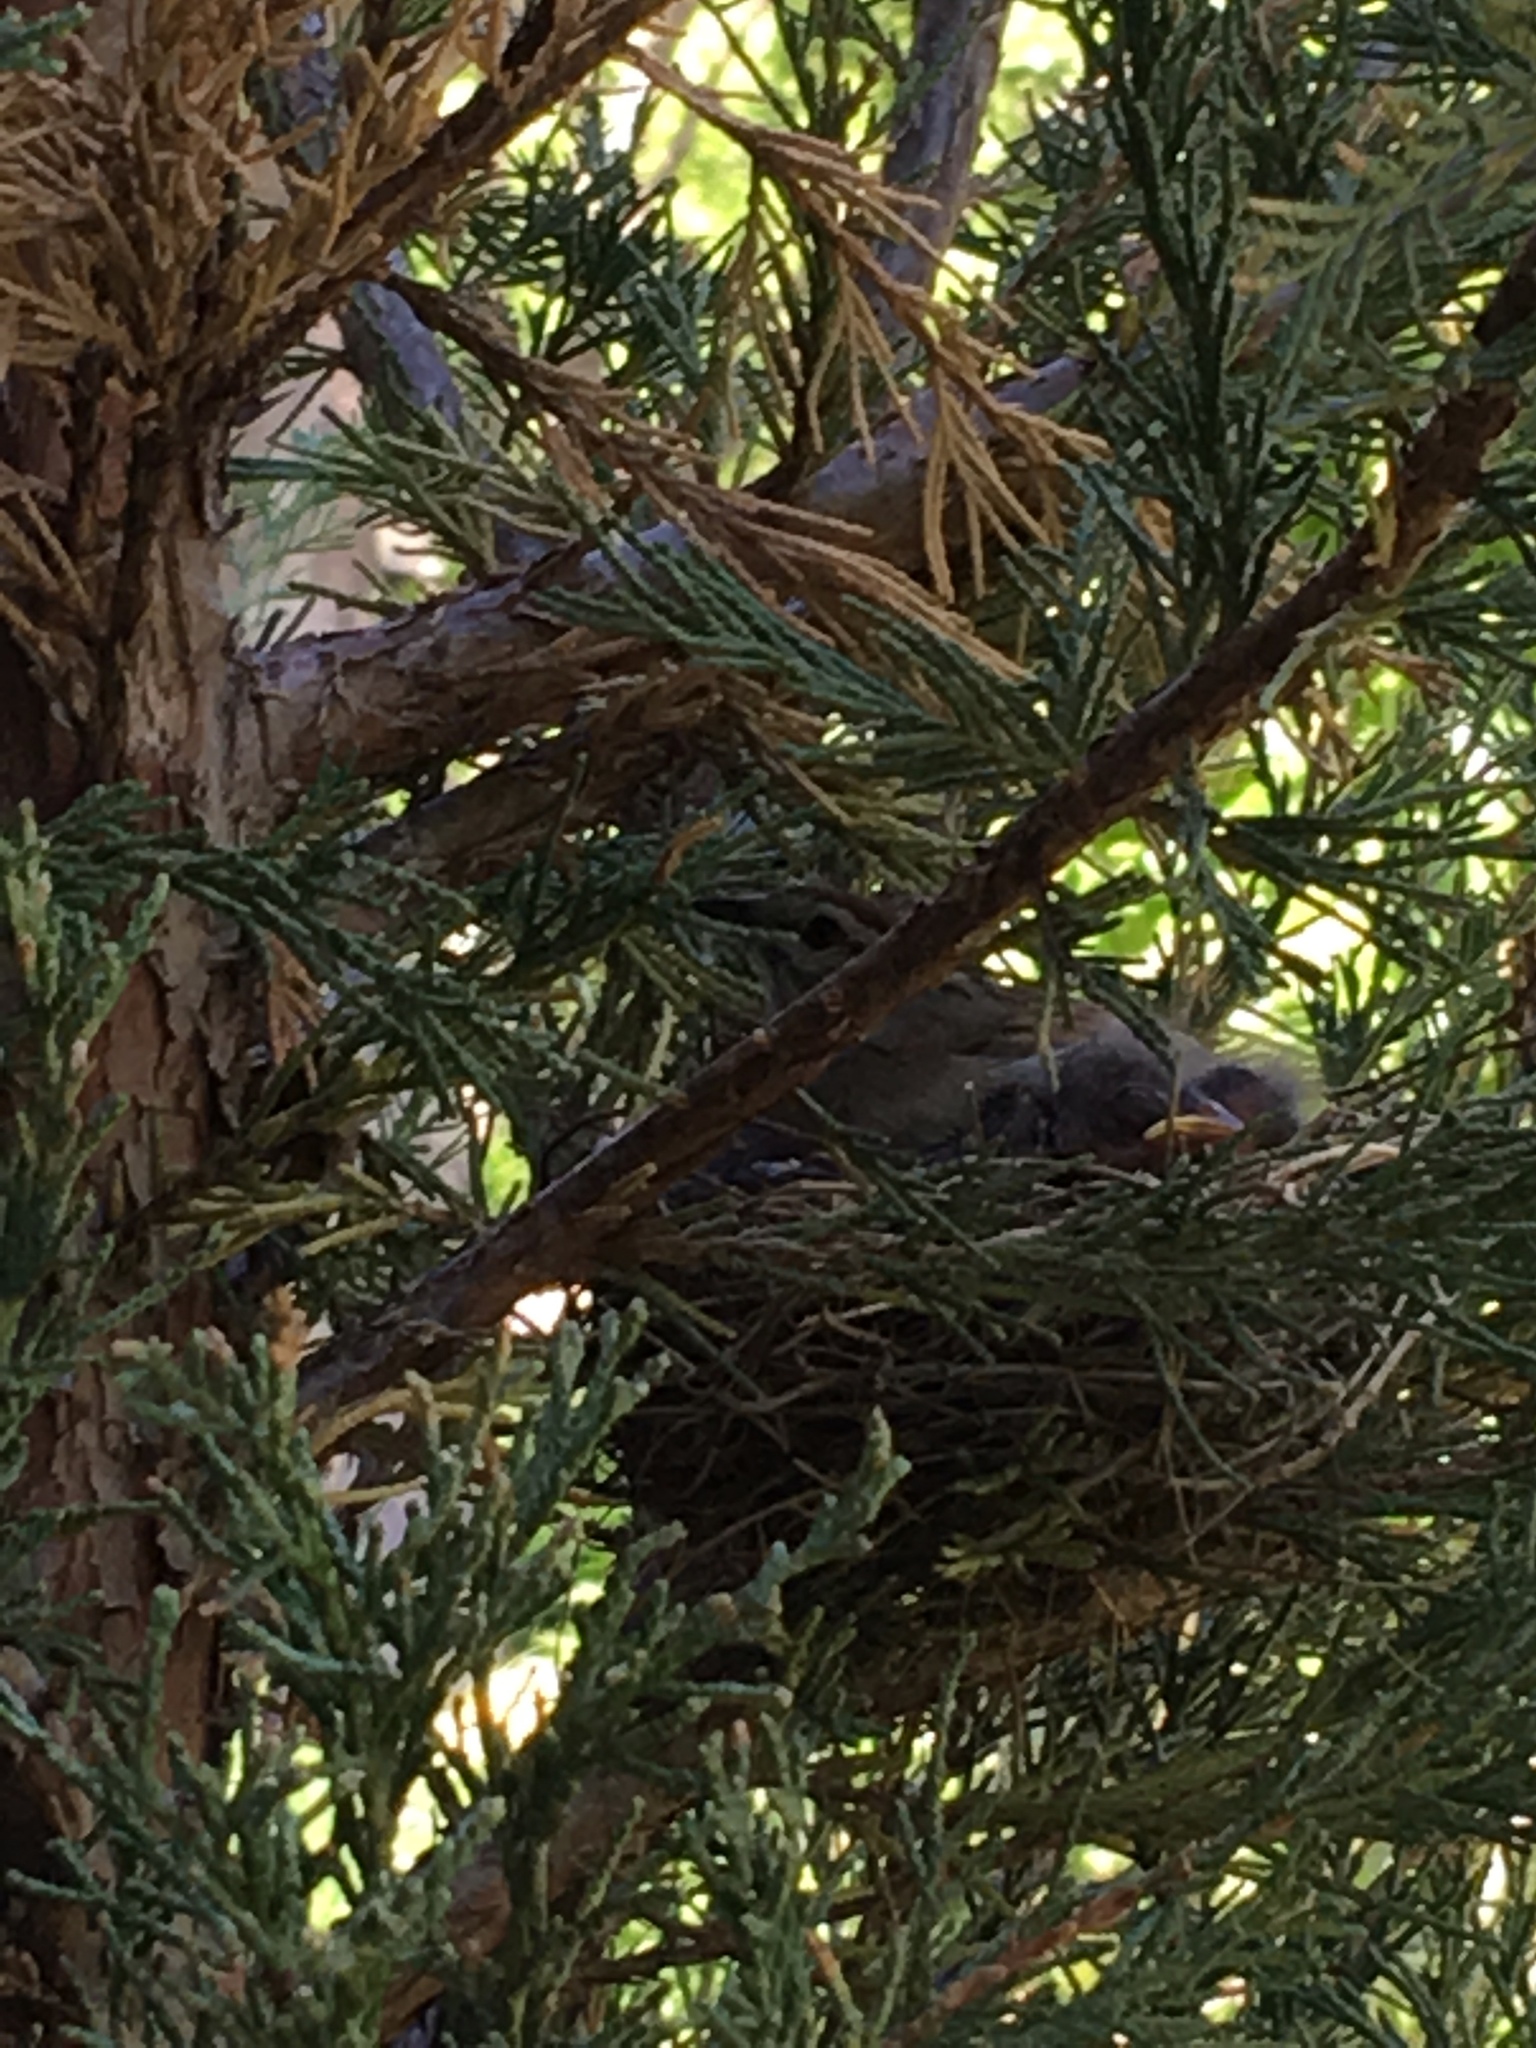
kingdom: Animalia
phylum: Chordata
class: Aves
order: Passeriformes
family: Passerellidae
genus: Spizella
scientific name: Spizella passerina
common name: Chipping sparrow
